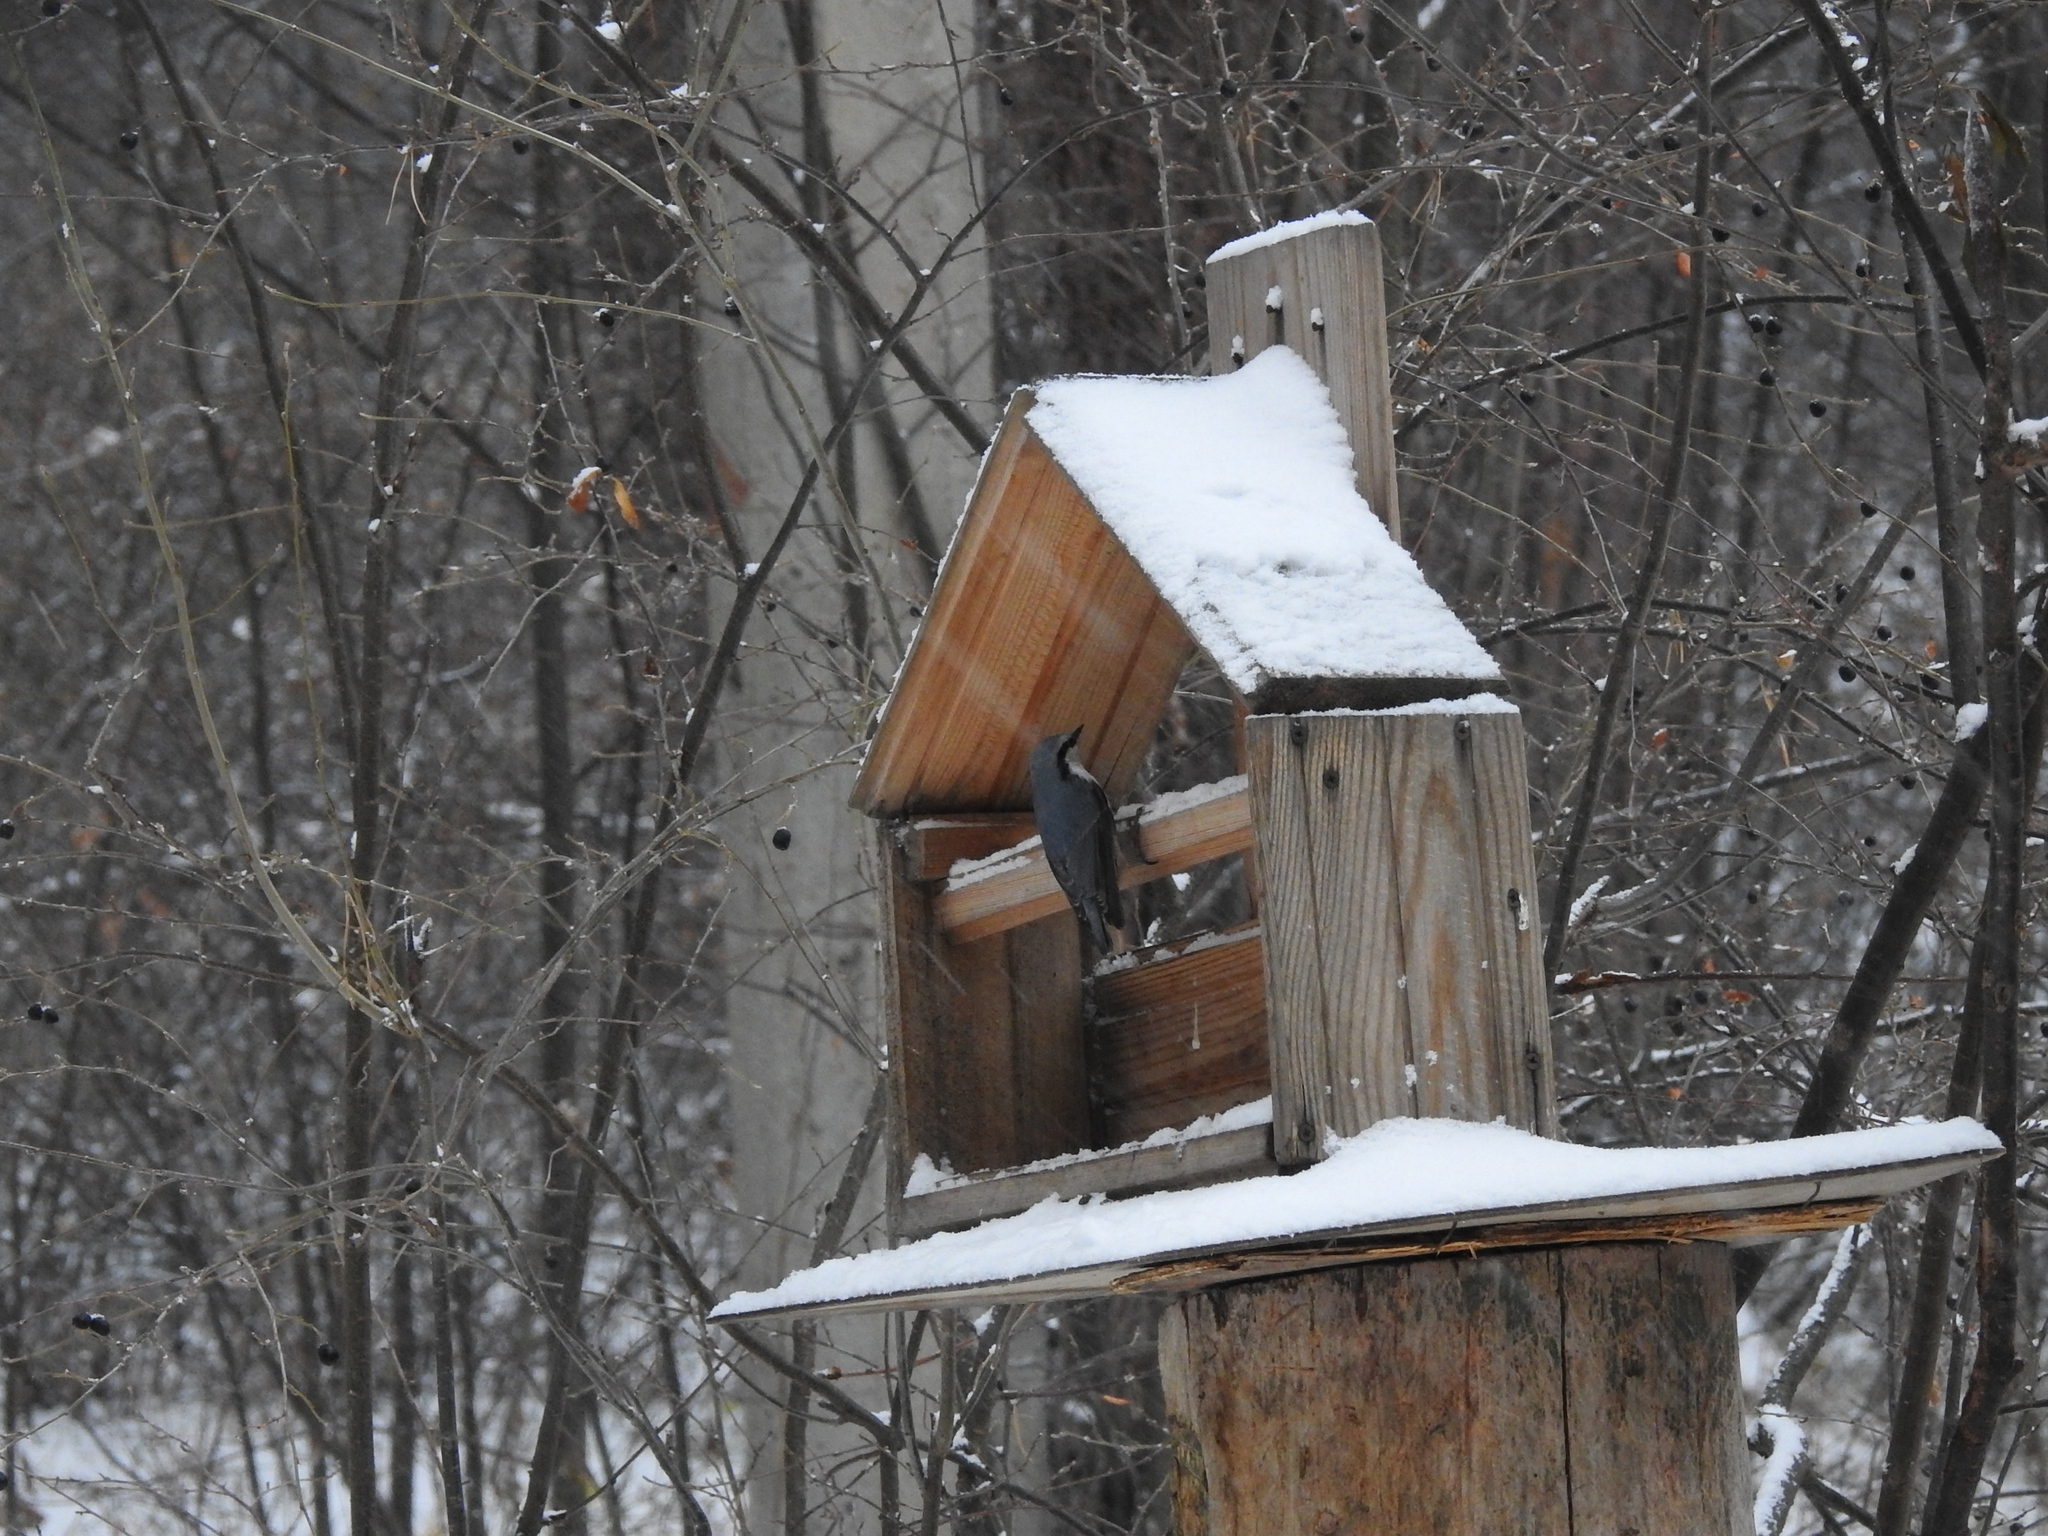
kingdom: Animalia
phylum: Chordata
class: Aves
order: Passeriformes
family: Sittidae
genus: Sitta
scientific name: Sitta europaea
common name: Eurasian nuthatch
